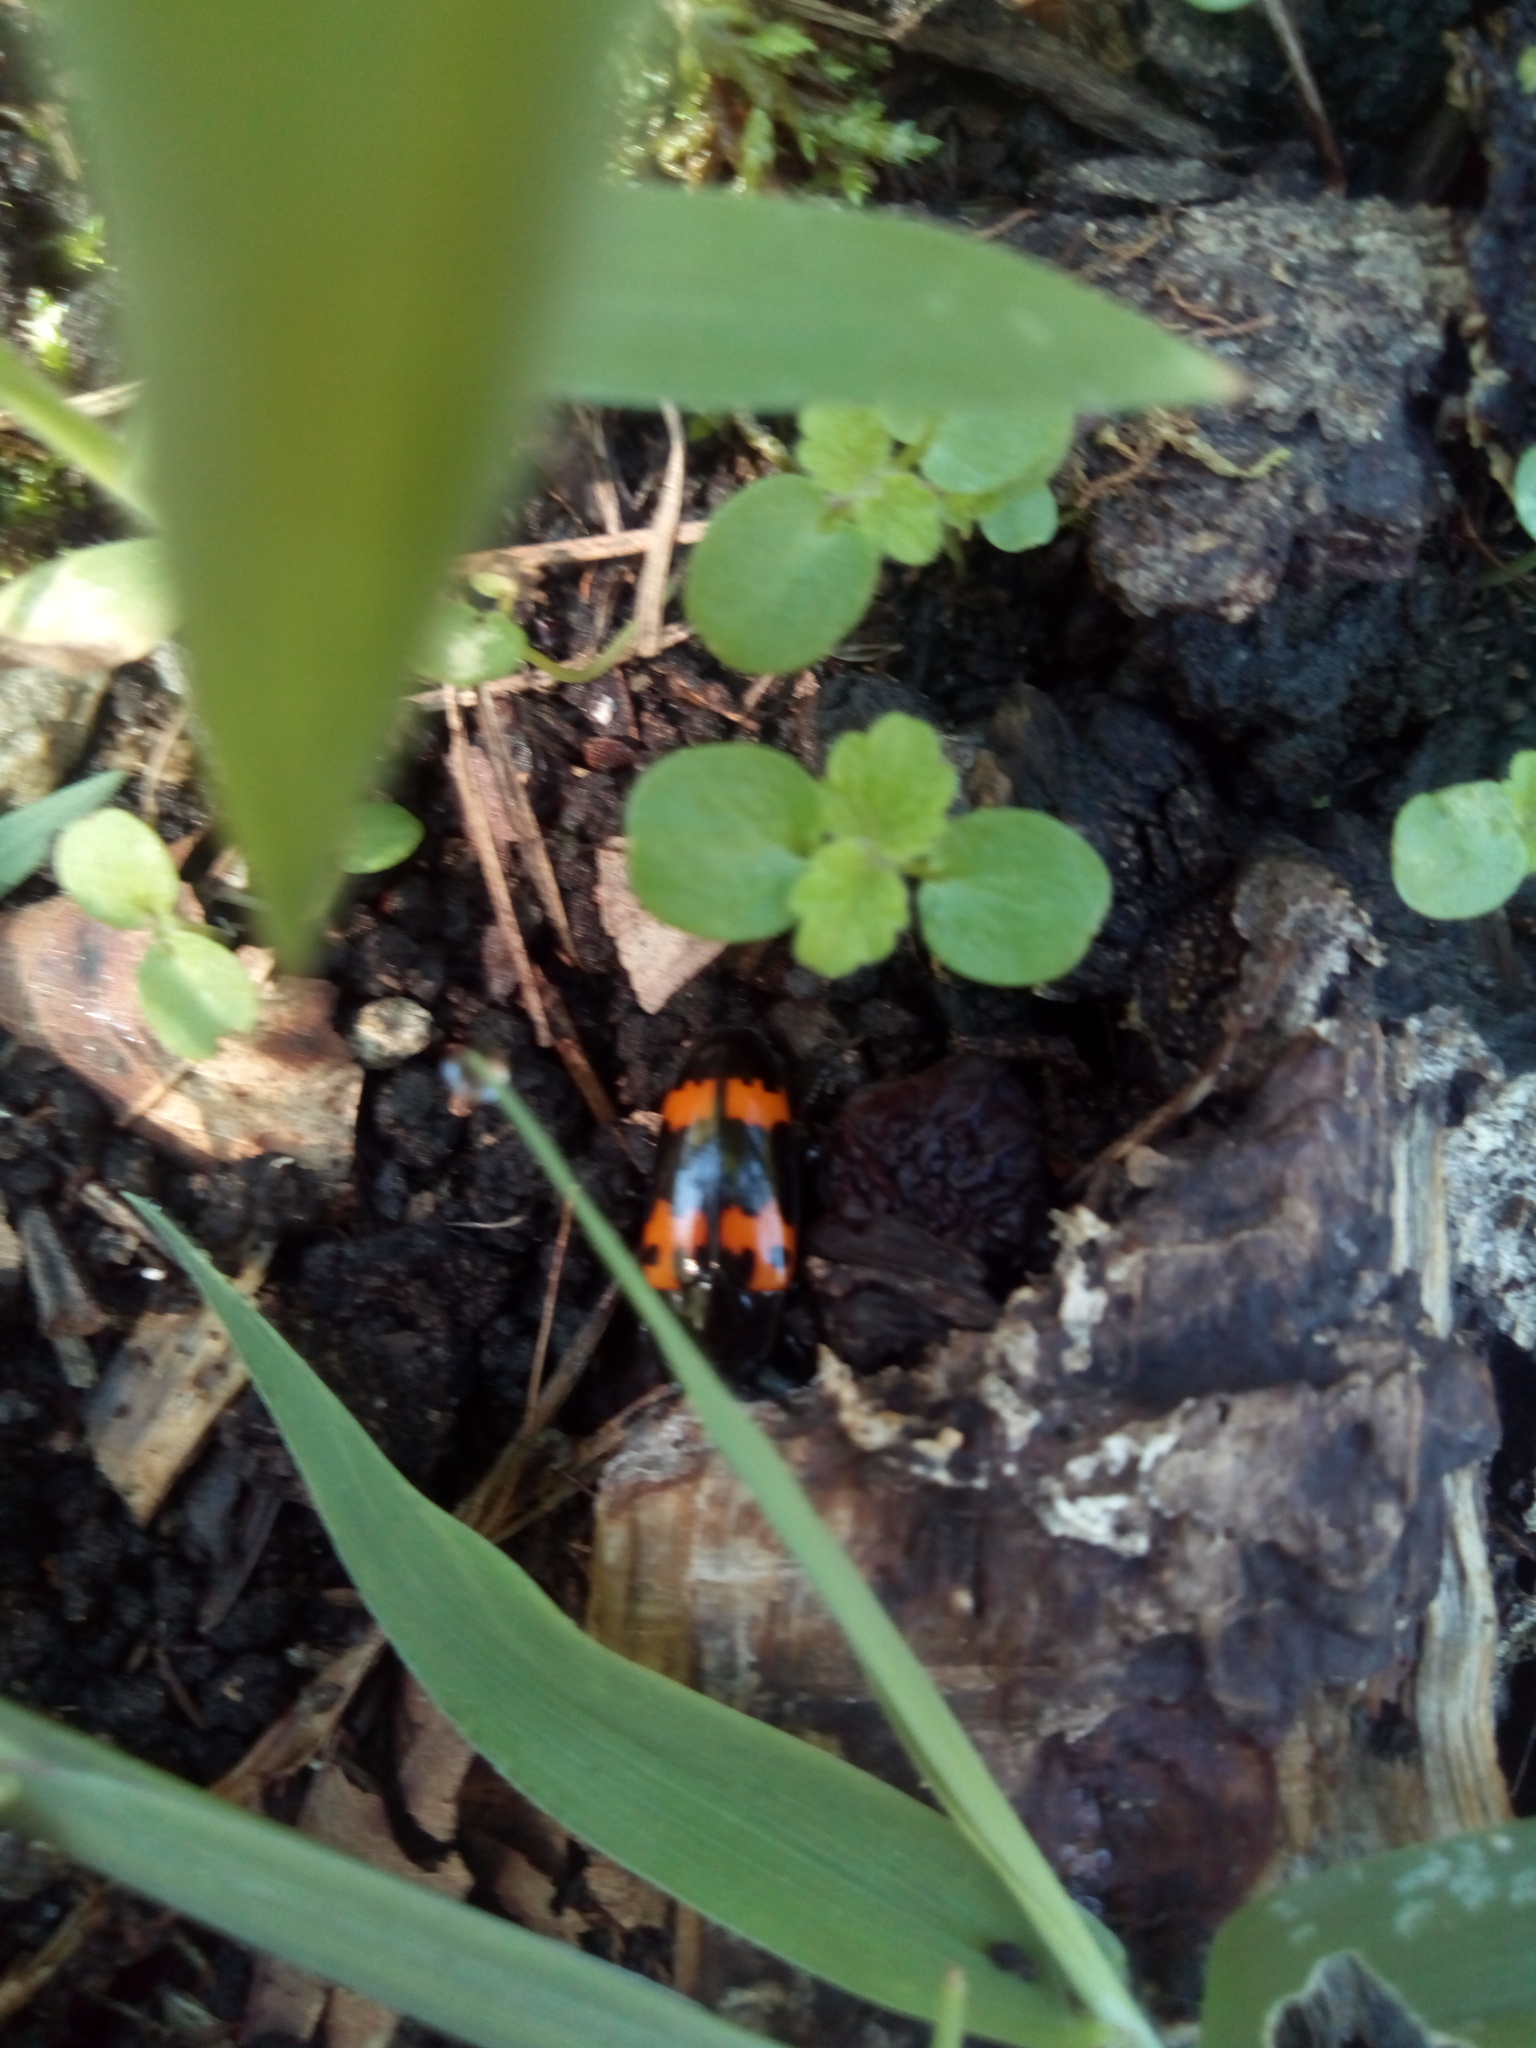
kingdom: Animalia
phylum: Arthropoda
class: Insecta
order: Coleoptera
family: Erotylidae
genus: Megalodacne
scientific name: Megalodacne fasciata
